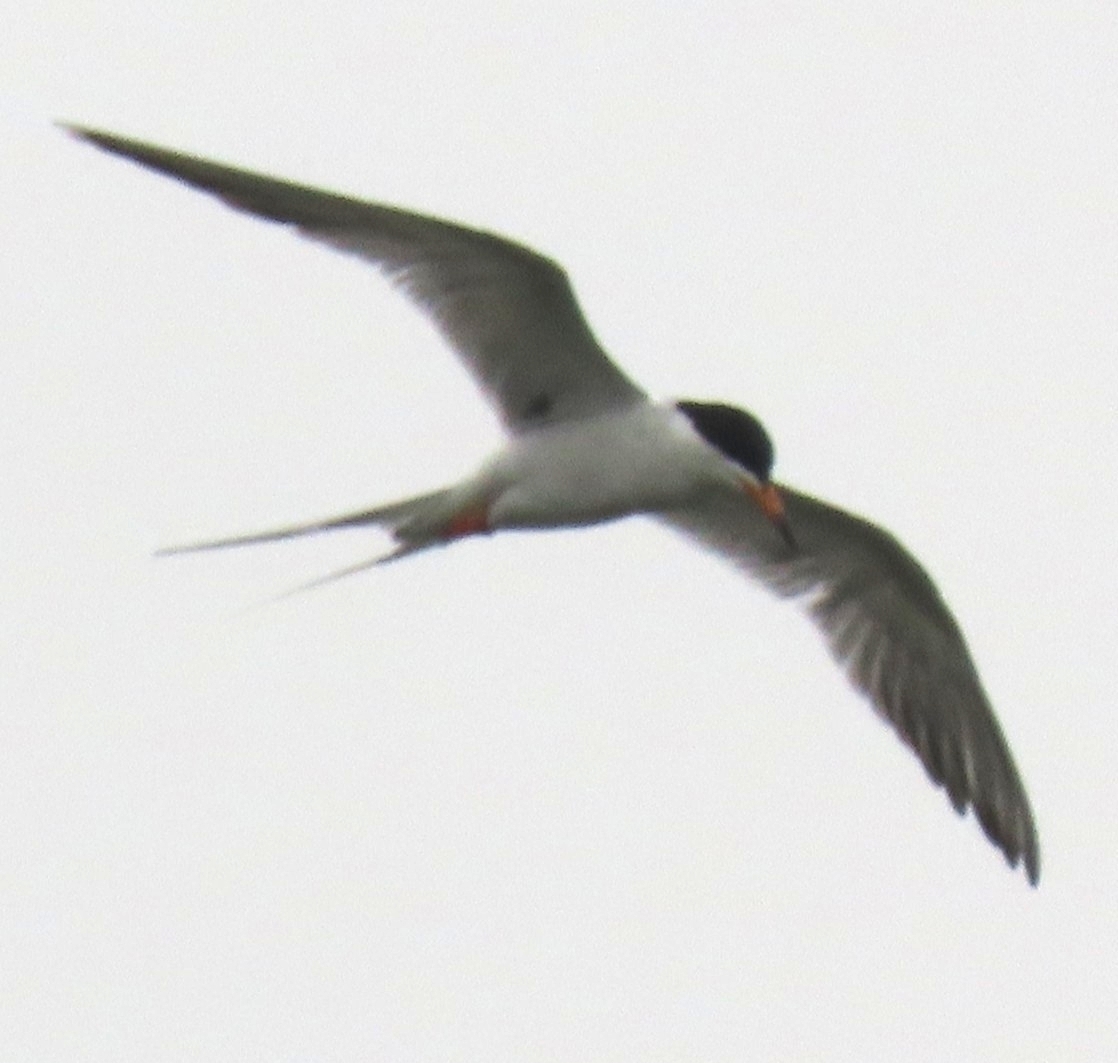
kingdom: Animalia
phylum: Chordata
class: Aves
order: Charadriiformes
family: Laridae
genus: Sterna
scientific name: Sterna forsteri
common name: Forster's tern
